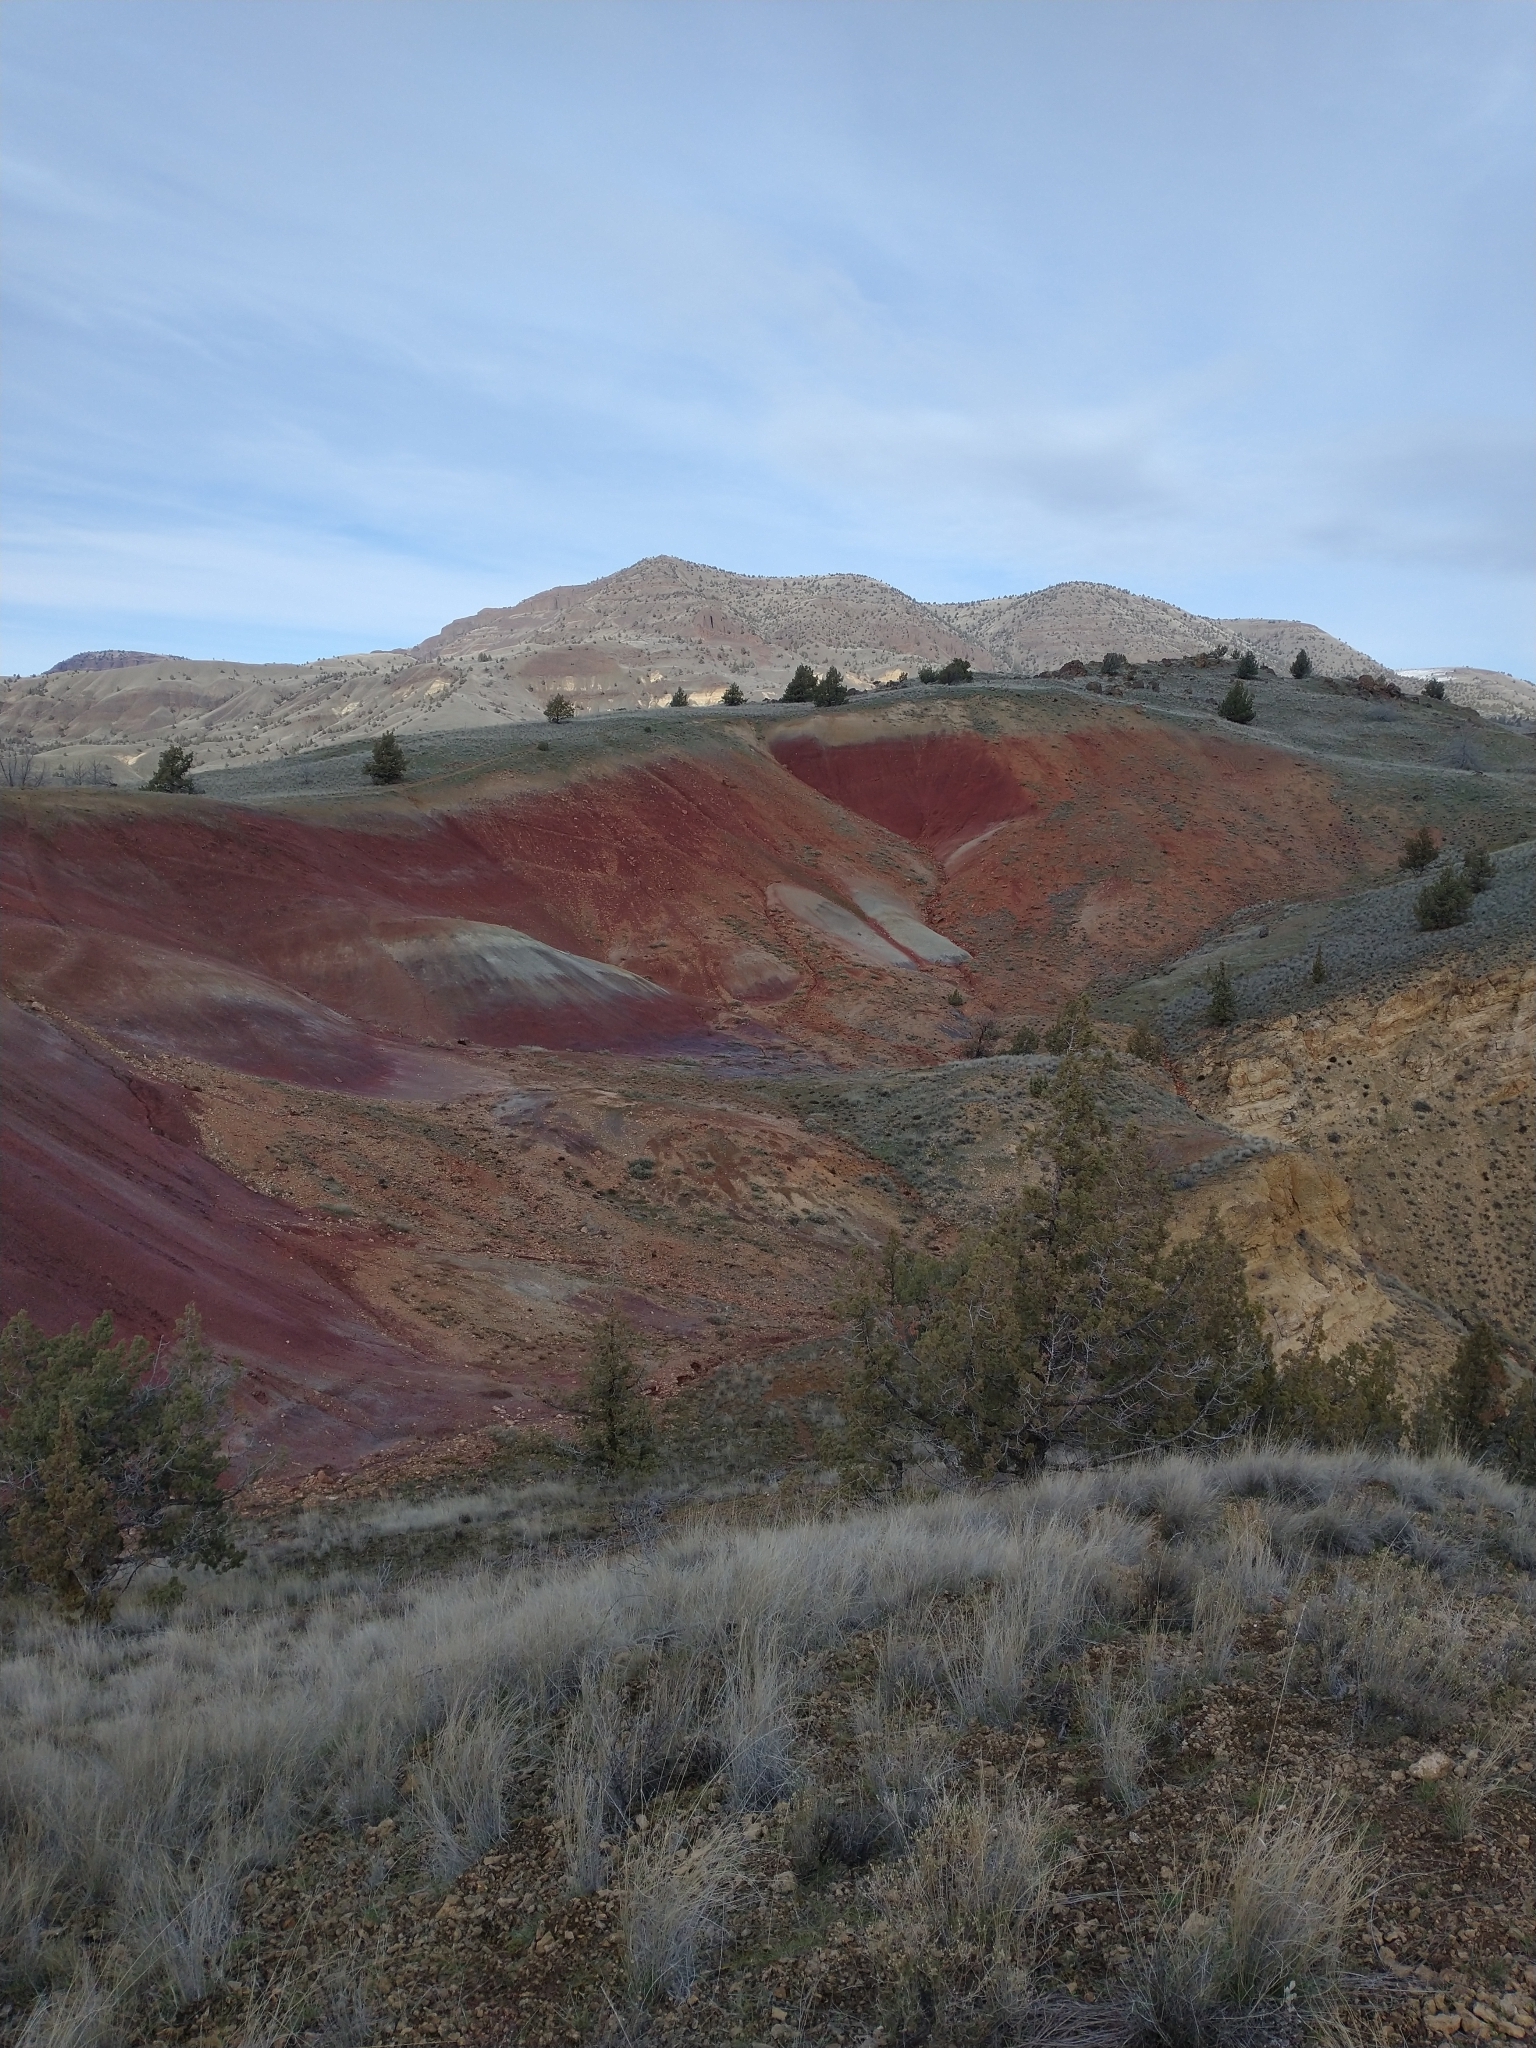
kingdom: Plantae
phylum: Tracheophyta
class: Pinopsida
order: Pinales
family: Cupressaceae
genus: Juniperus
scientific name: Juniperus occidentalis
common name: Western juniper
